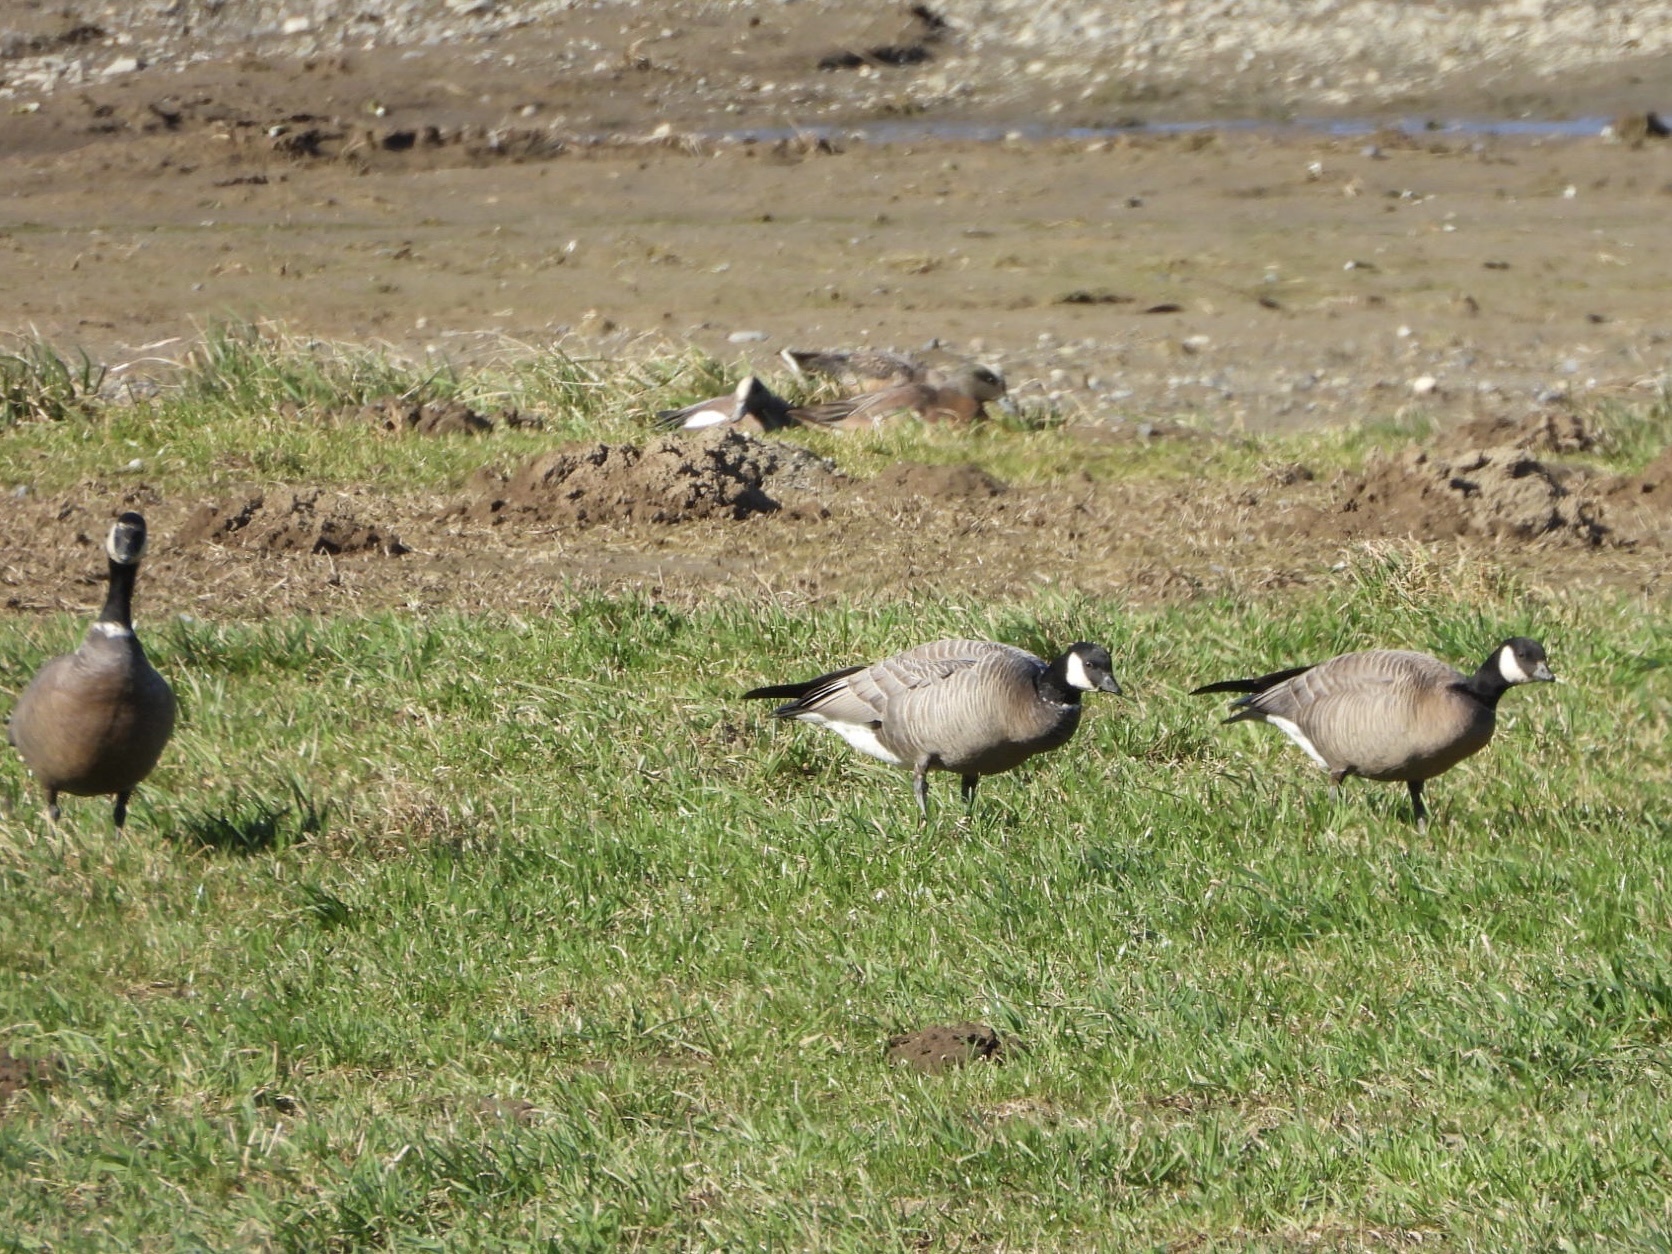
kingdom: Animalia
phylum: Chordata
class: Aves
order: Anseriformes
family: Anatidae
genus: Mareca
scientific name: Mareca americana
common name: American wigeon
